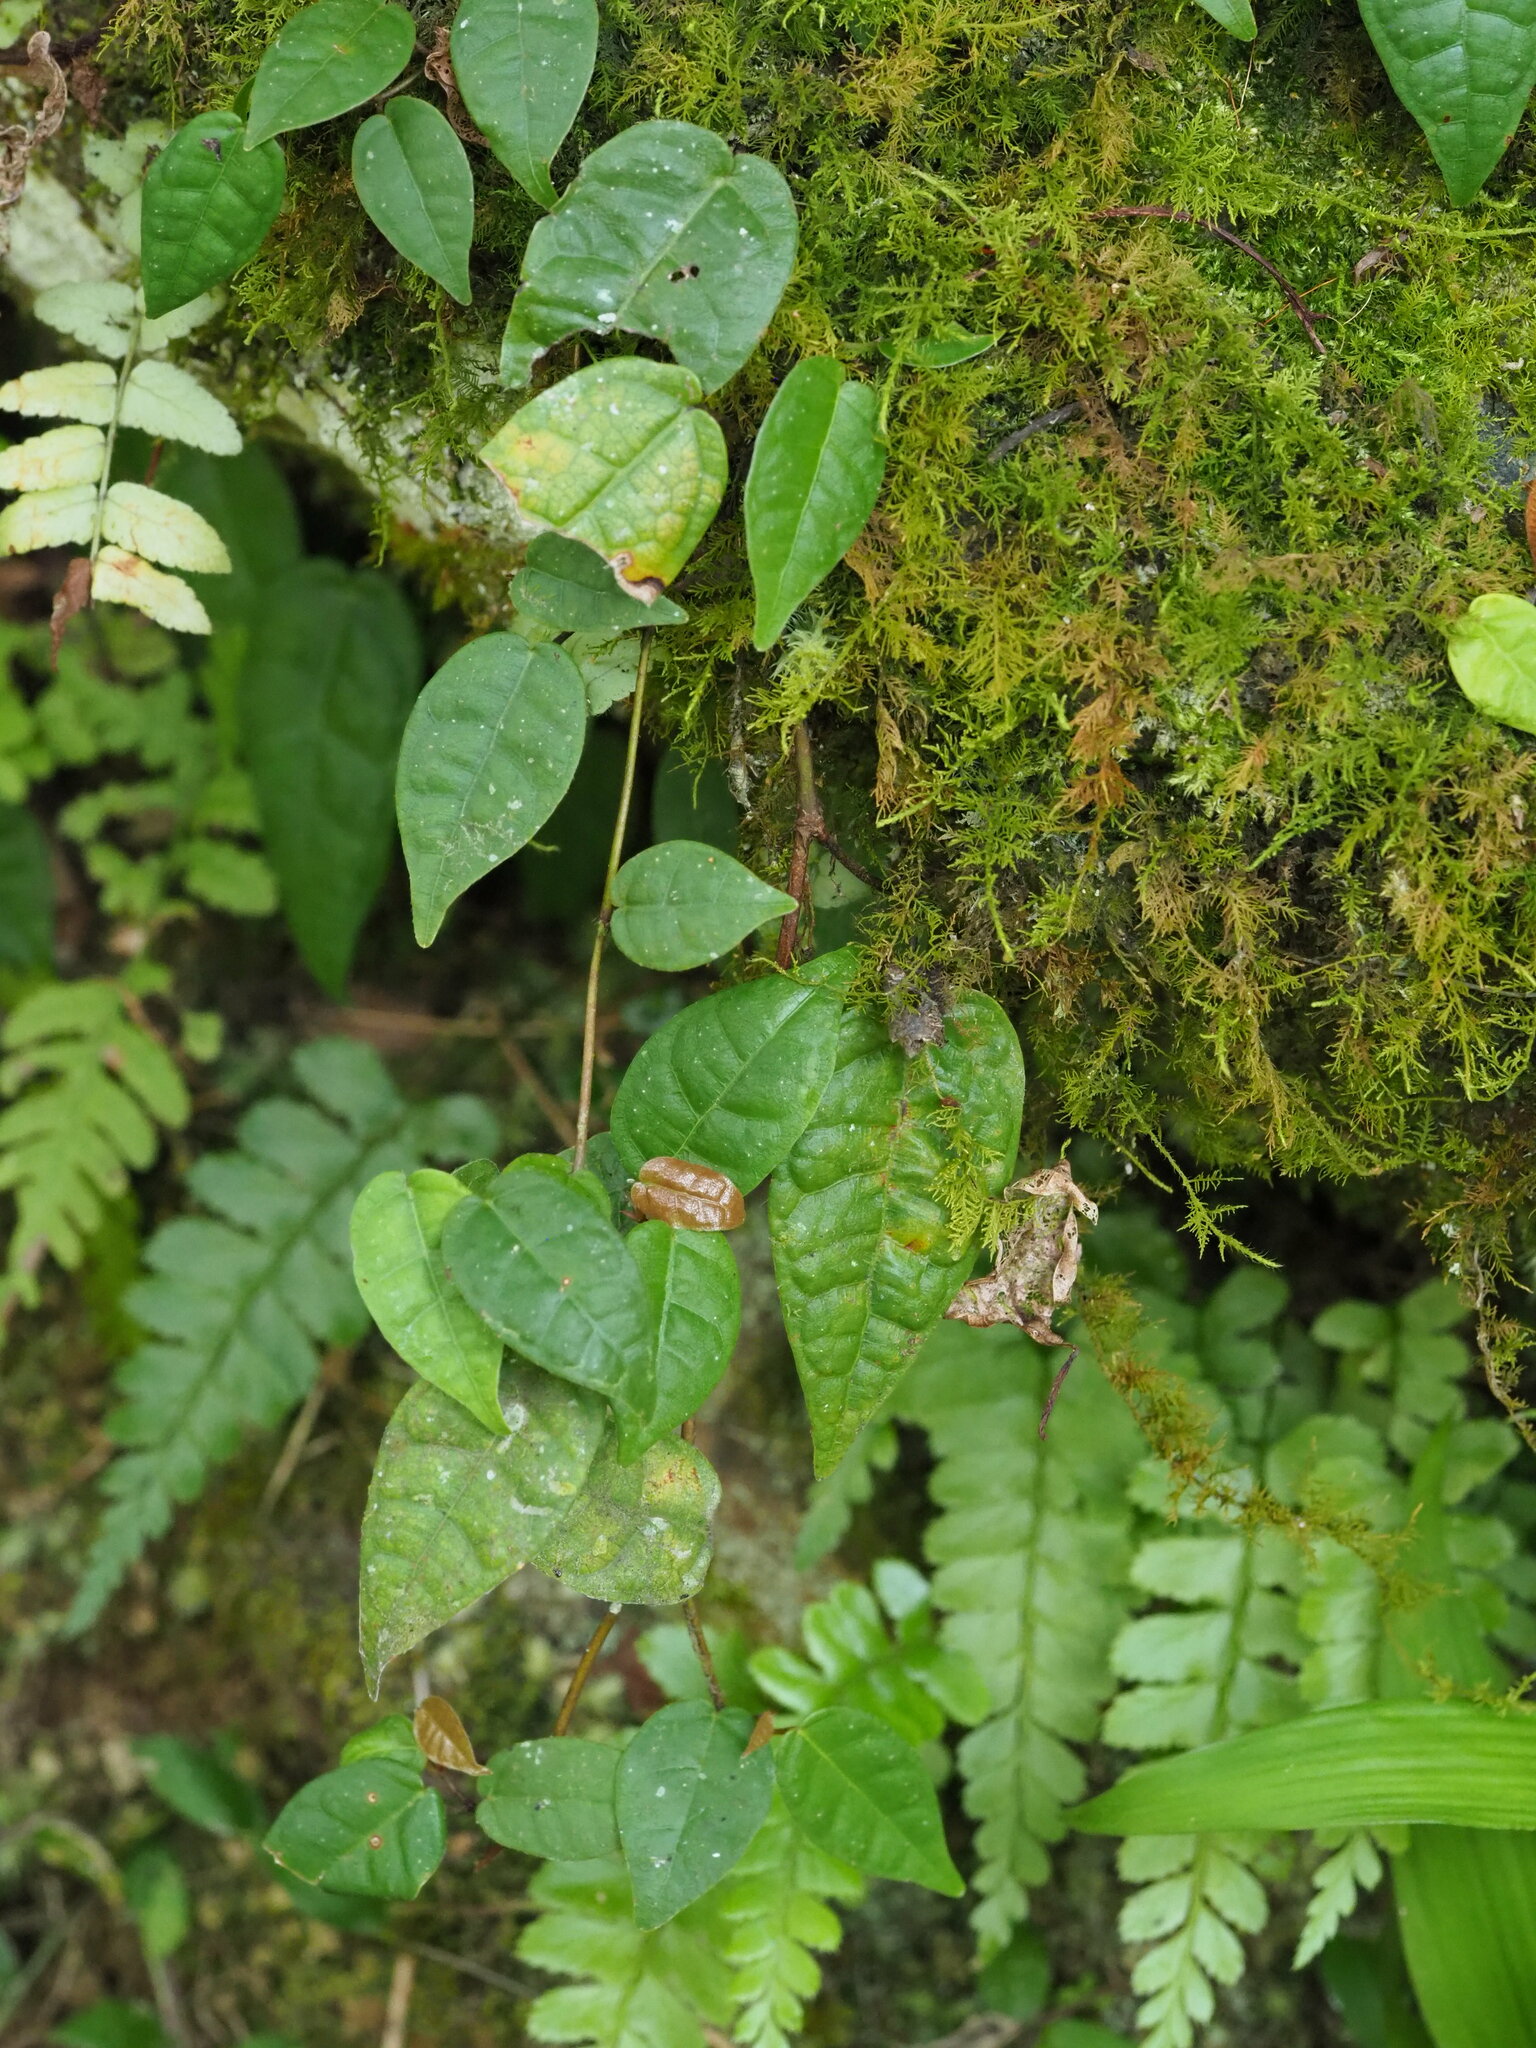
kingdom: Plantae
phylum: Tracheophyta
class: Magnoliopsida
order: Rosales
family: Moraceae
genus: Ficus
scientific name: Ficus sarmentosa
